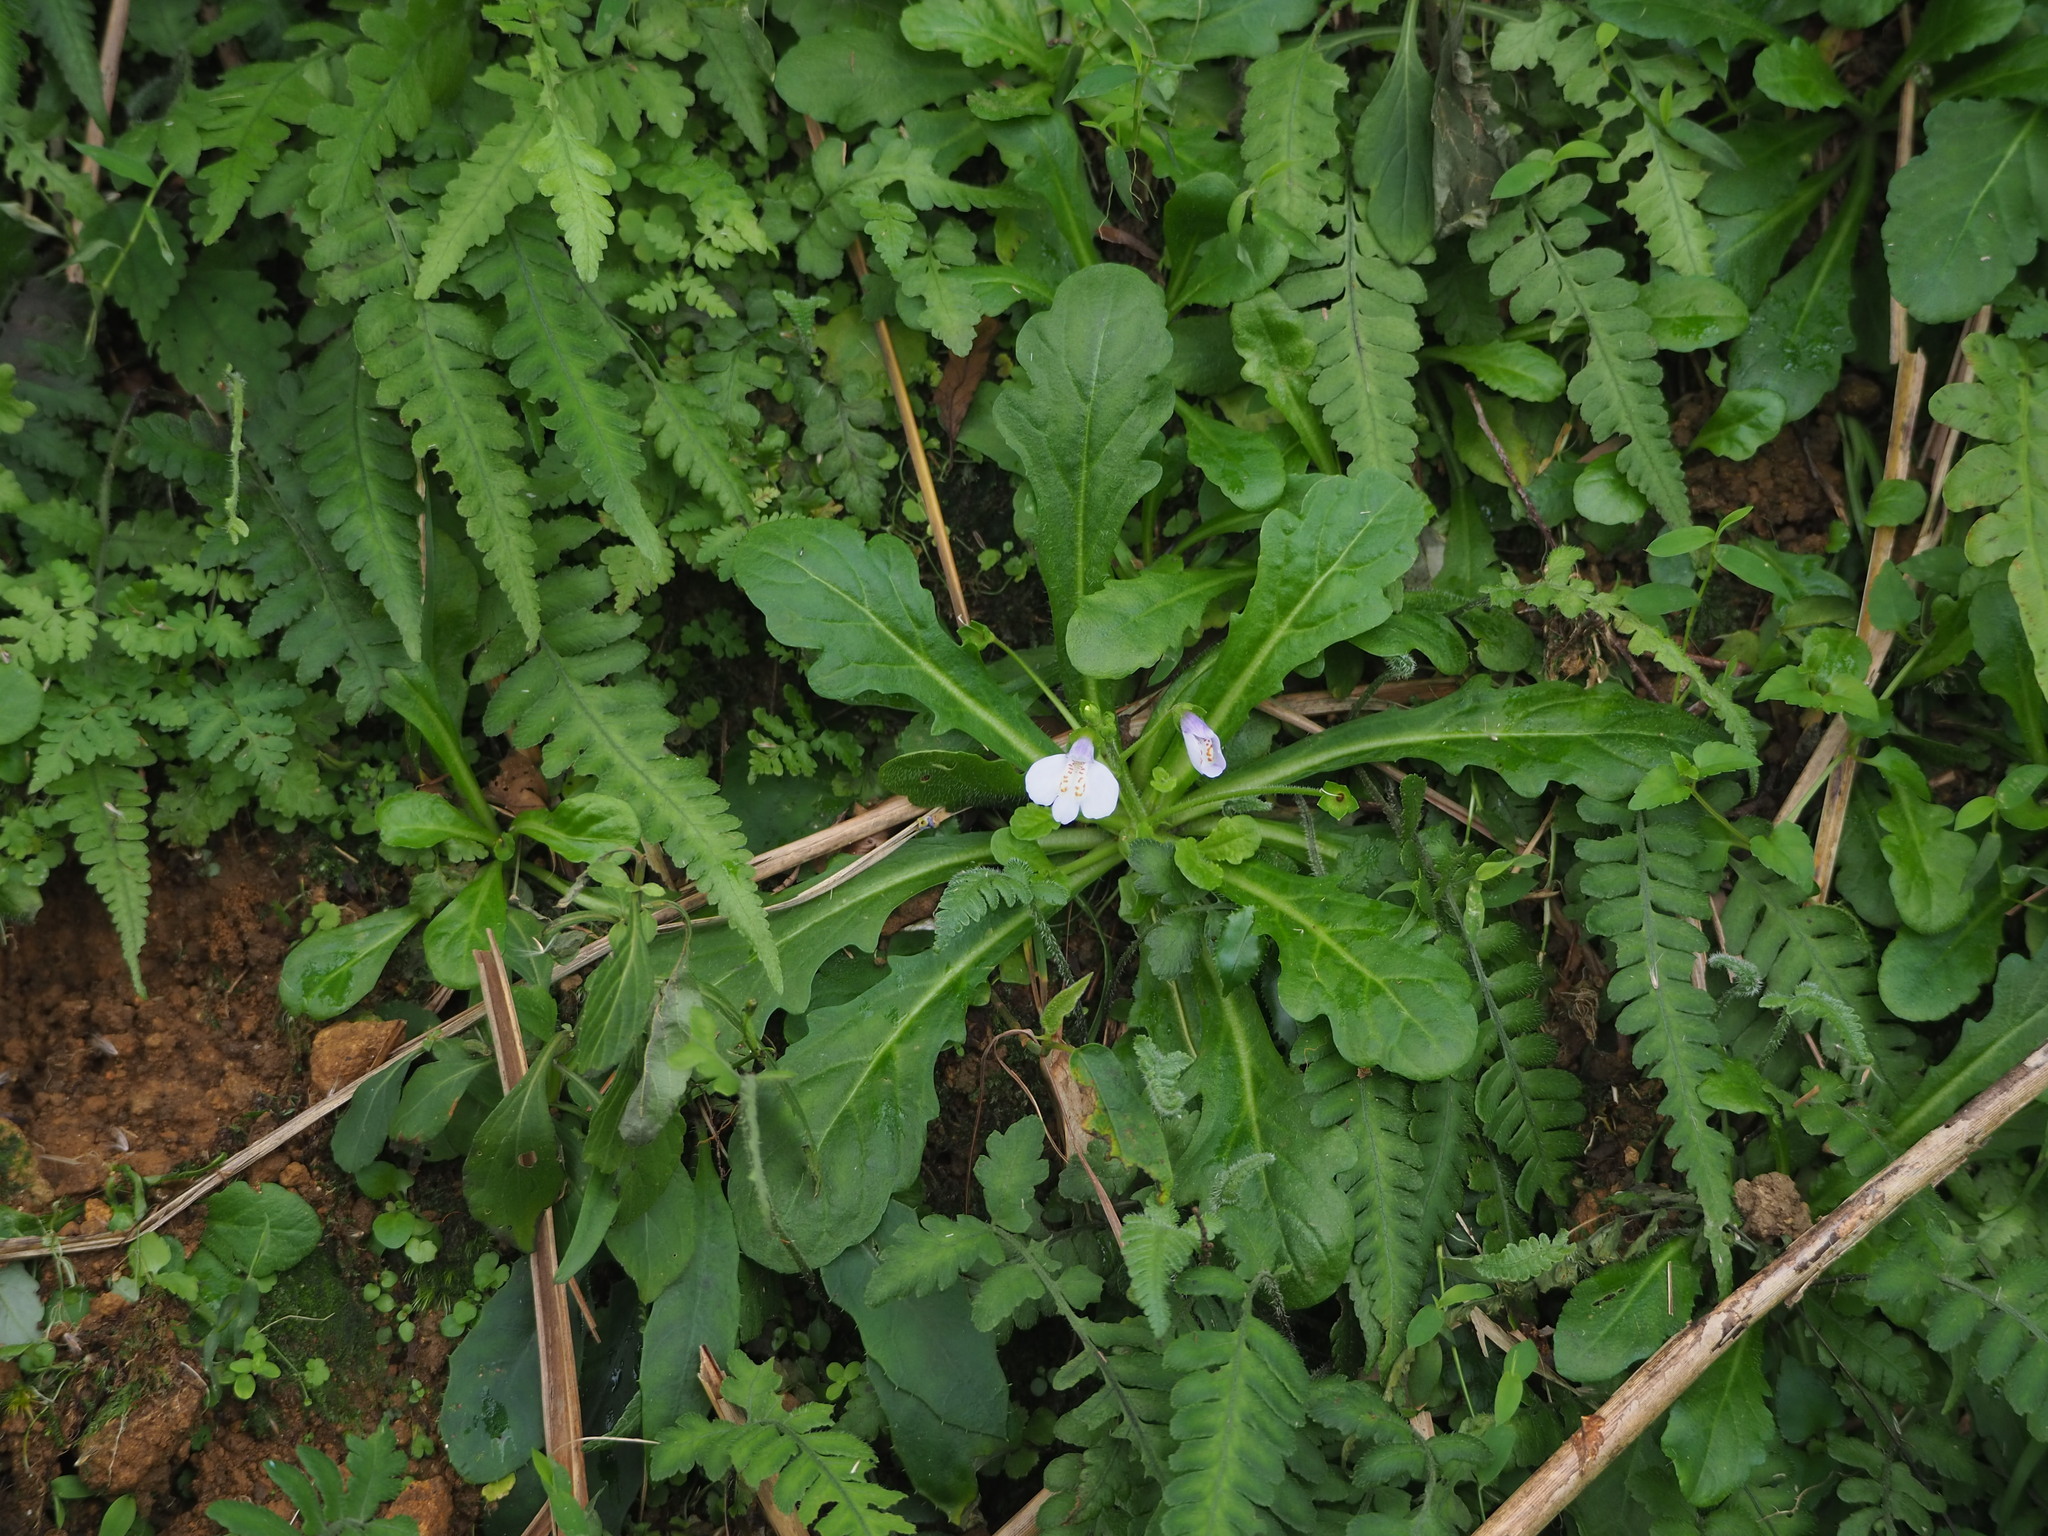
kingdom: Plantae
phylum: Tracheophyta
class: Magnoliopsida
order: Lamiales
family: Mazaceae
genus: Mazus
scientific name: Mazus fauriei
